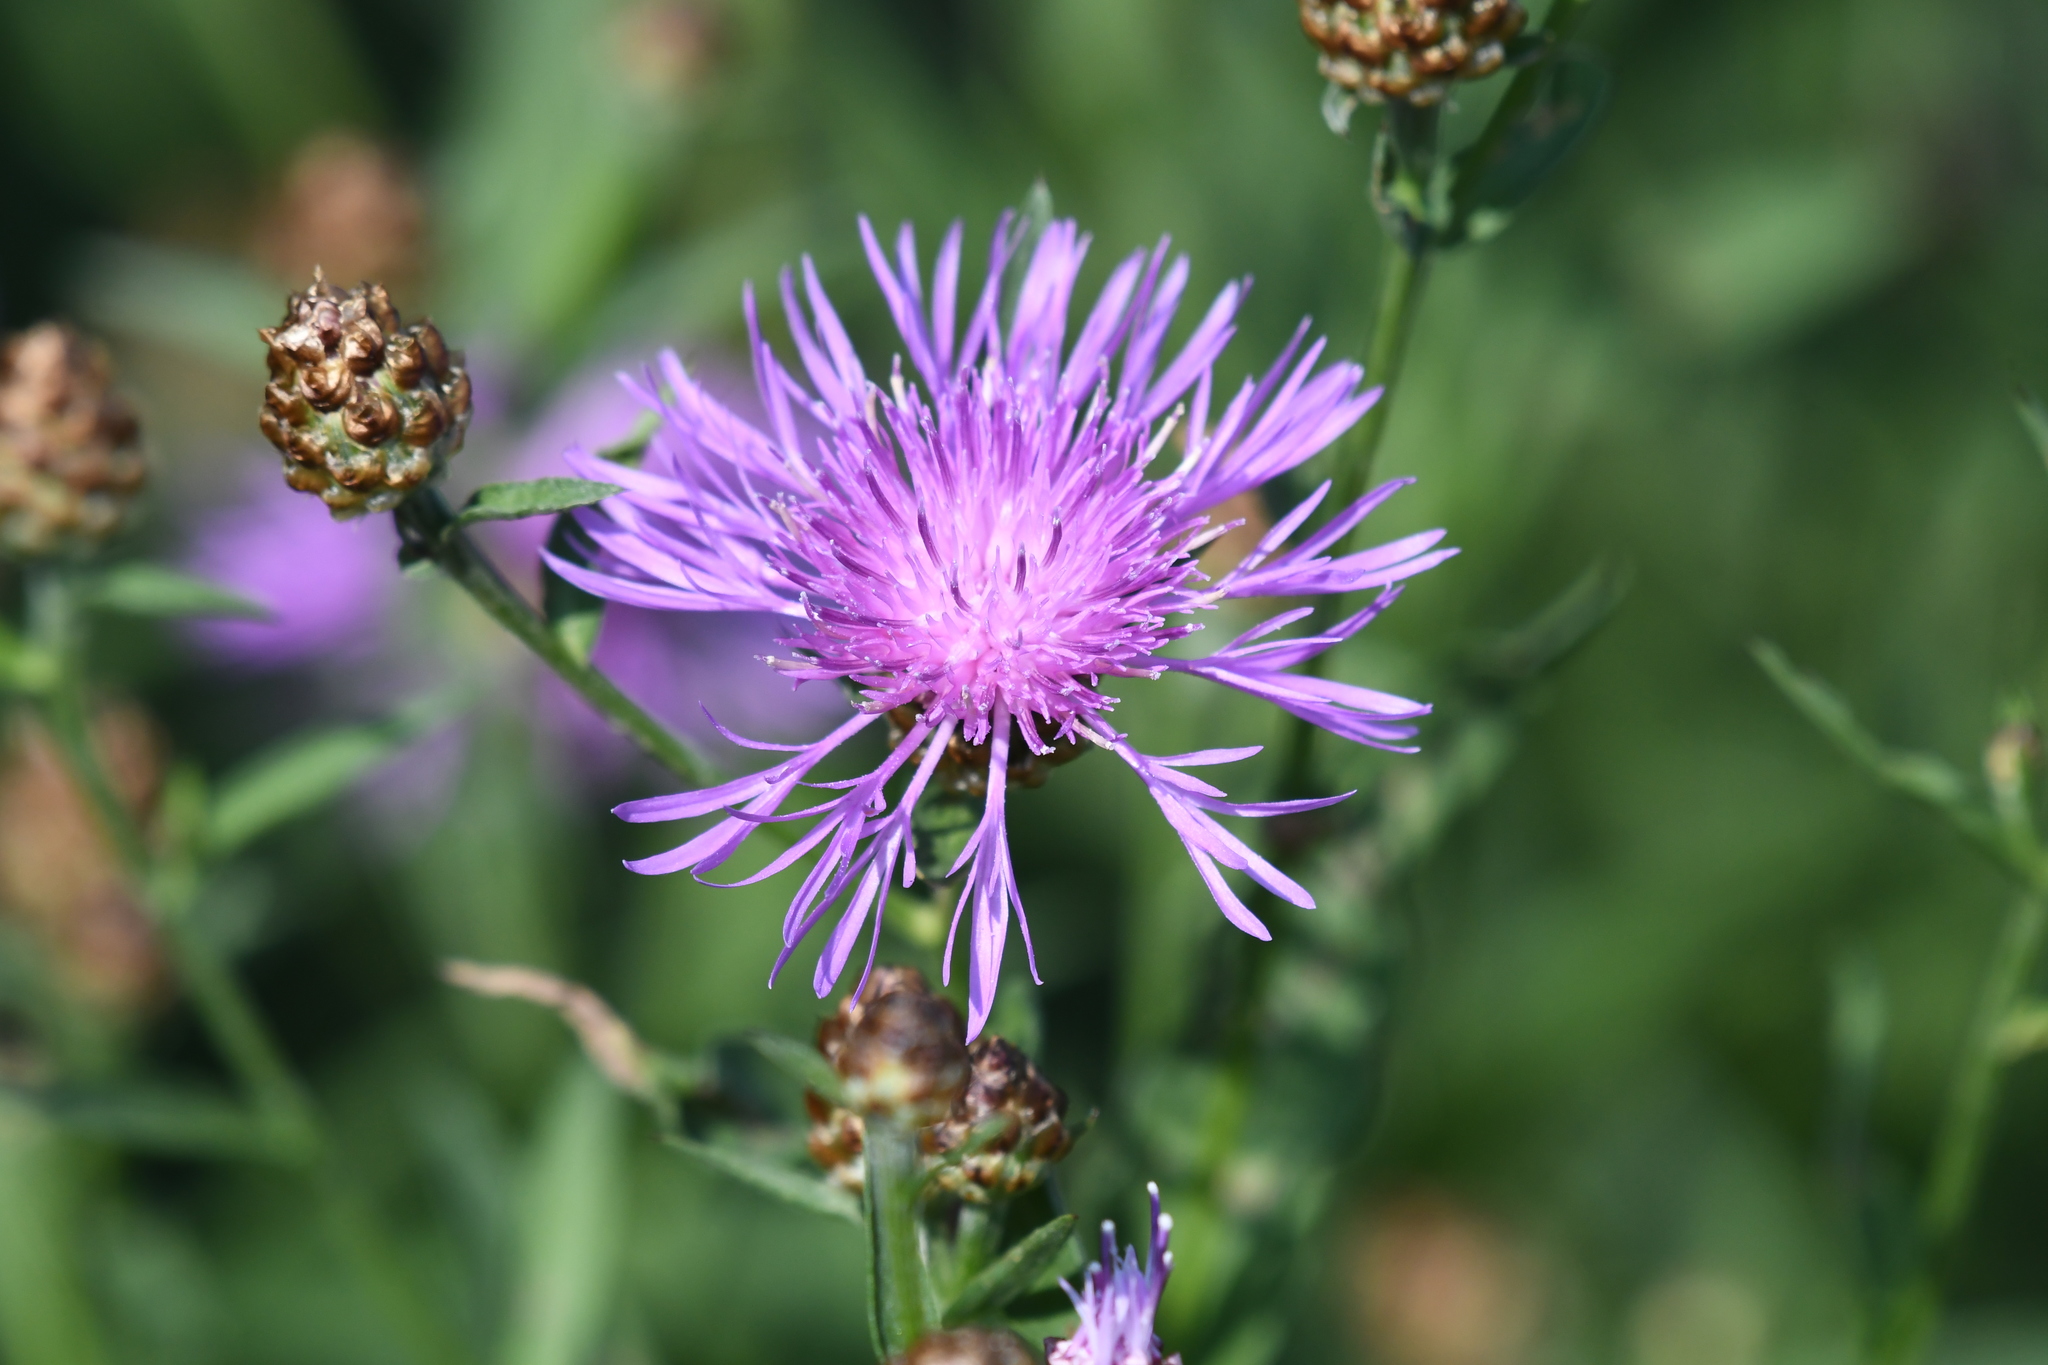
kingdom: Plantae
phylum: Tracheophyta
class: Magnoliopsida
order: Asterales
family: Asteraceae
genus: Centaurea
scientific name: Centaurea jacea
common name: Brown knapweed
